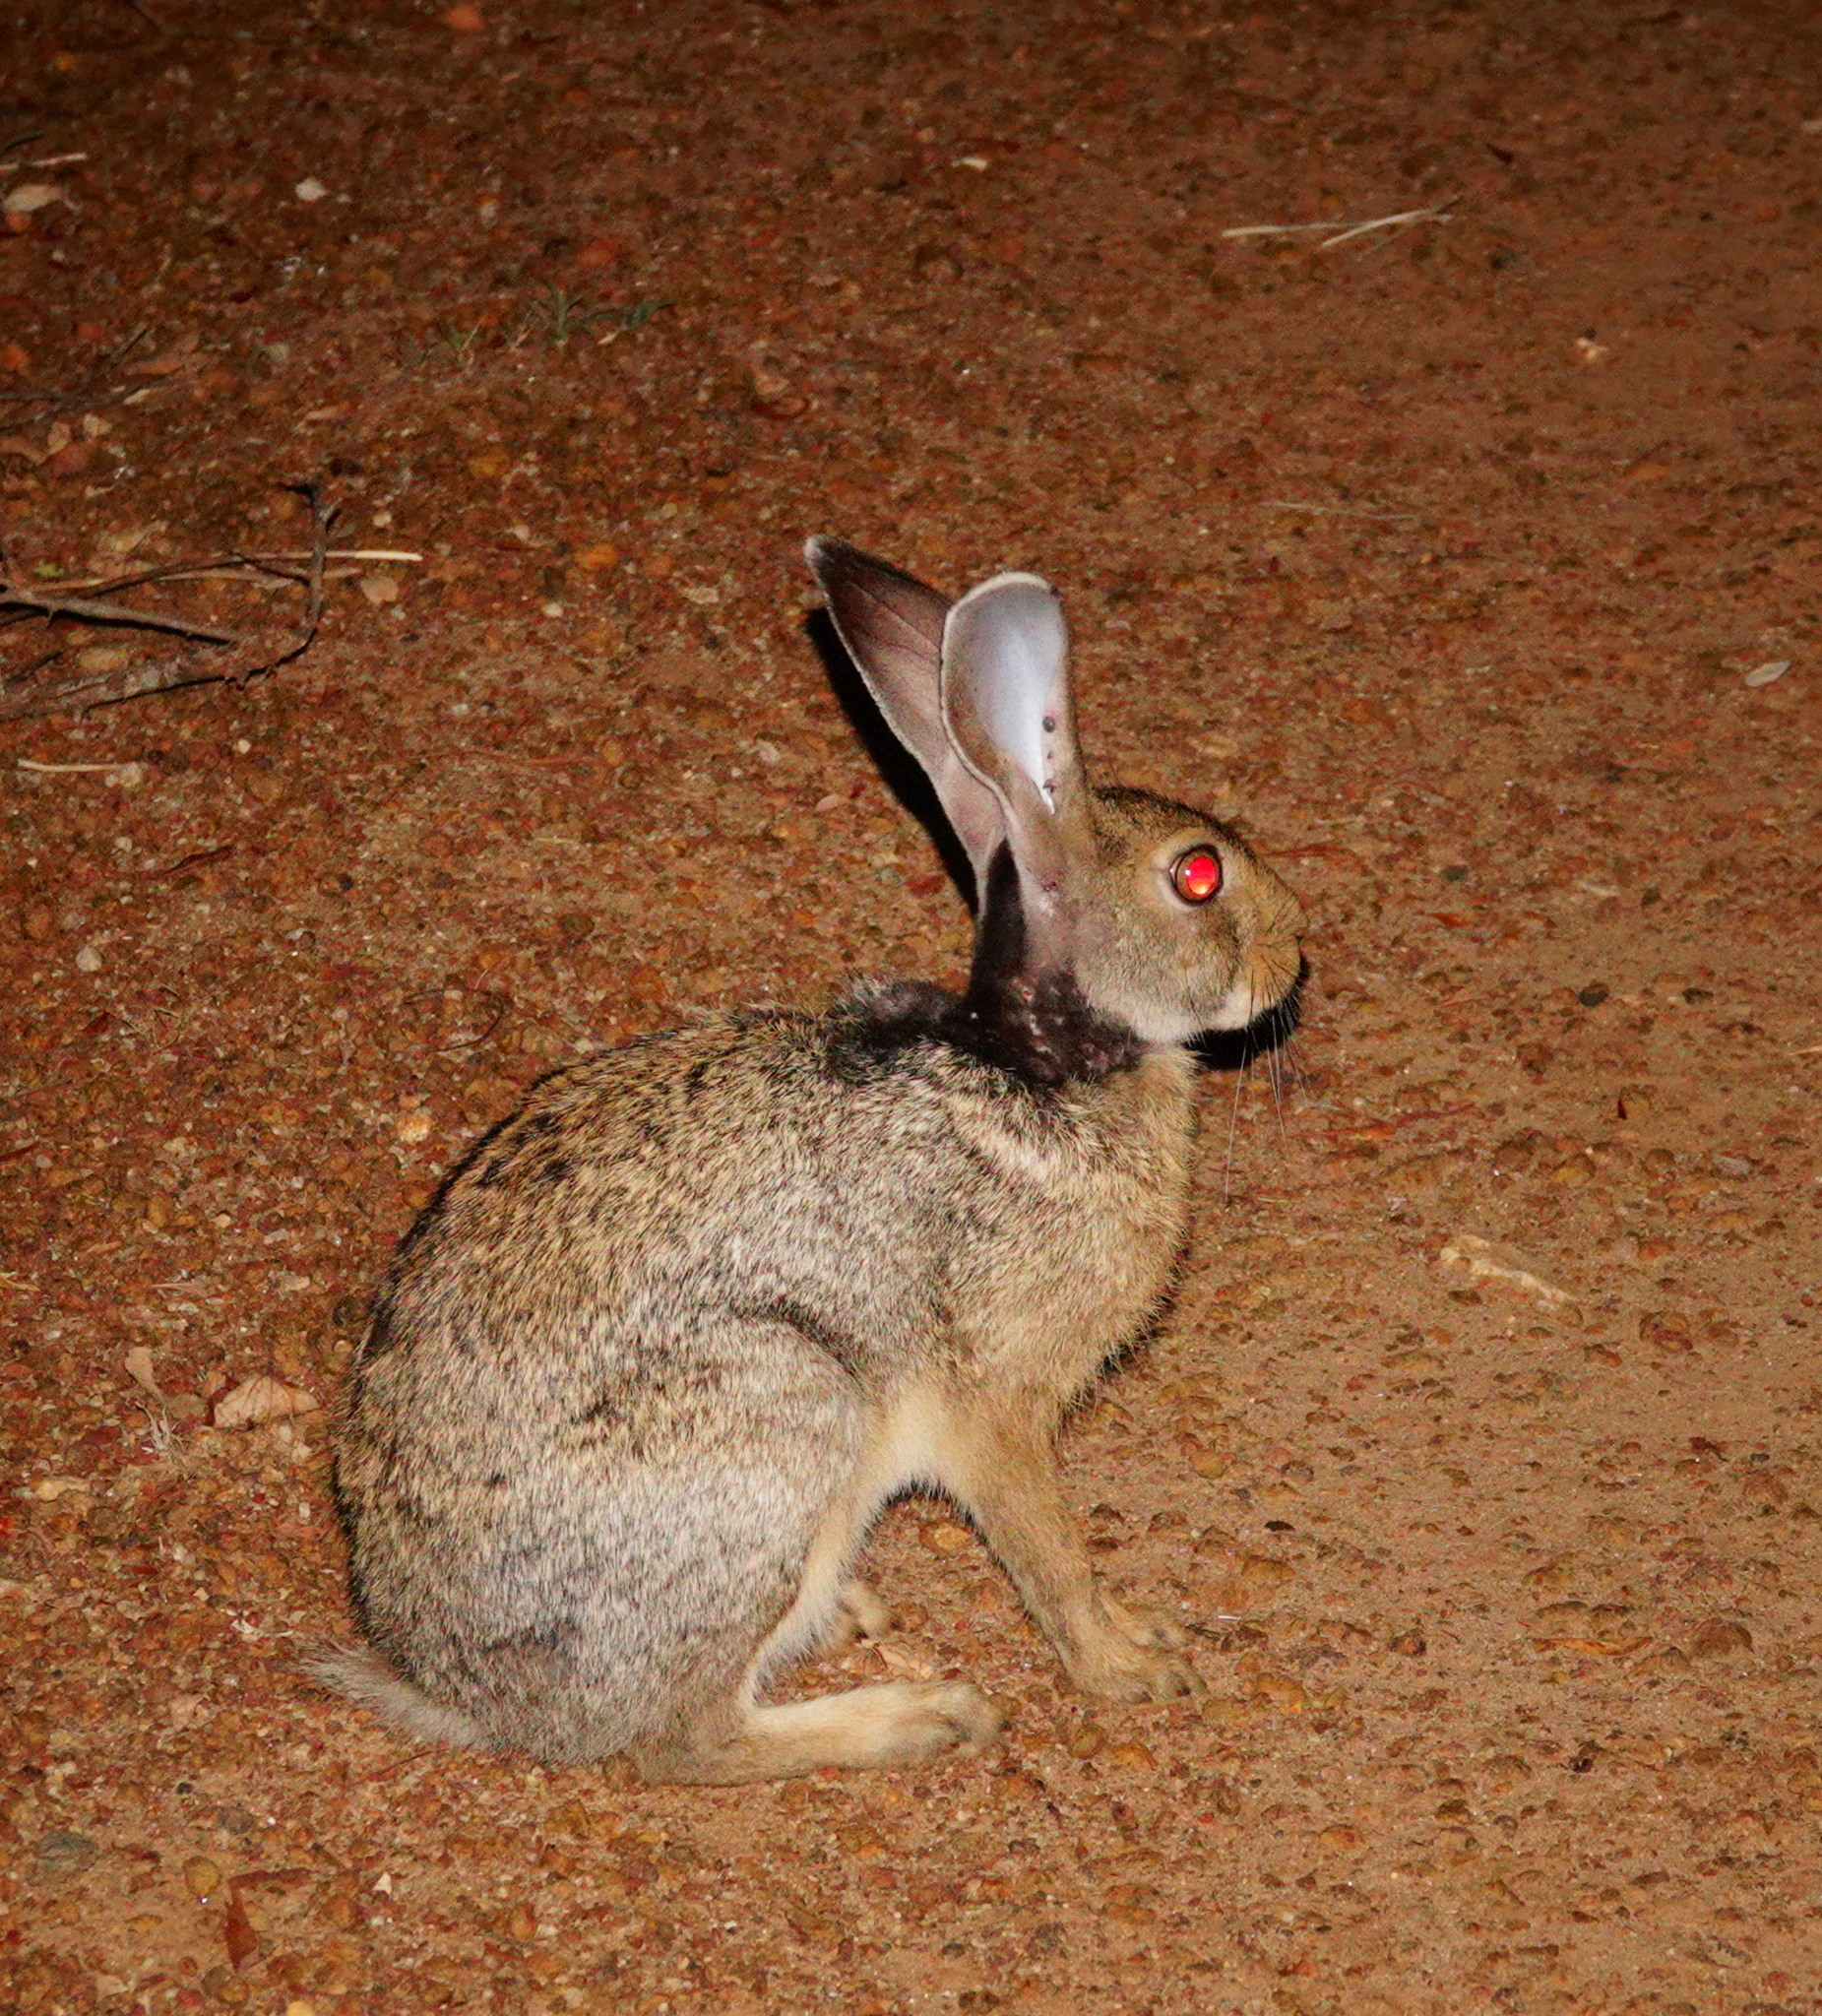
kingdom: Animalia
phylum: Chordata
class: Mammalia
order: Lagomorpha
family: Leporidae
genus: Lepus
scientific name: Lepus nigricollis
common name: Indian hare
